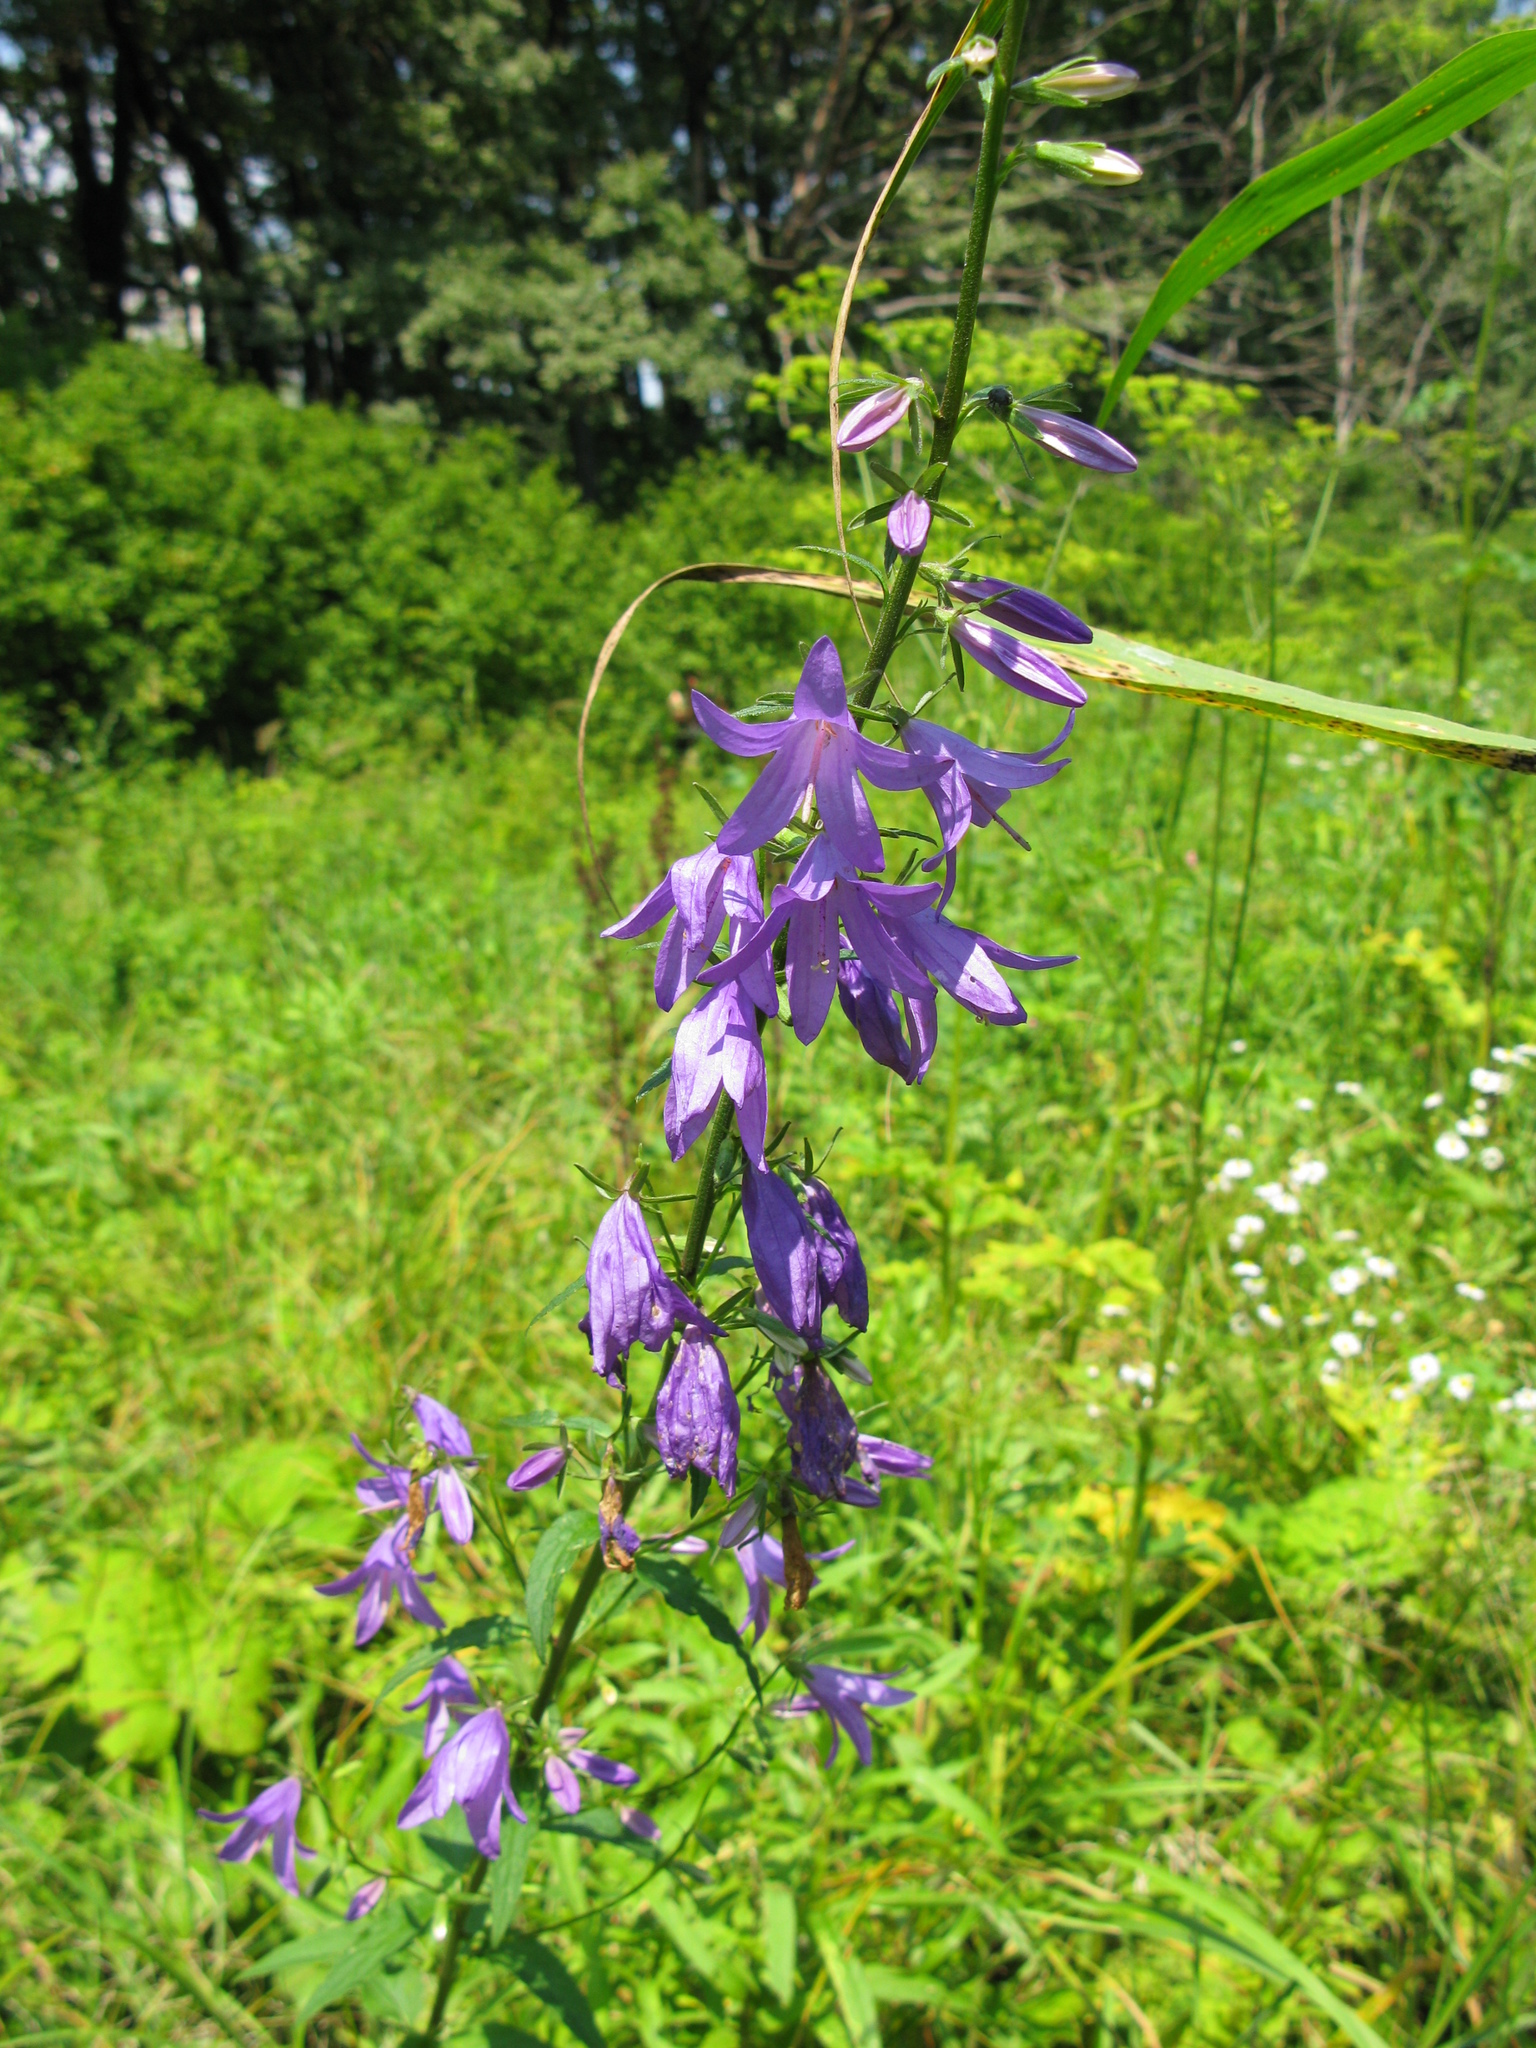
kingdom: Plantae
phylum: Tracheophyta
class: Magnoliopsida
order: Asterales
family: Campanulaceae
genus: Campanula
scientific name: Campanula rapunculoides
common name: Creeping bellflower
